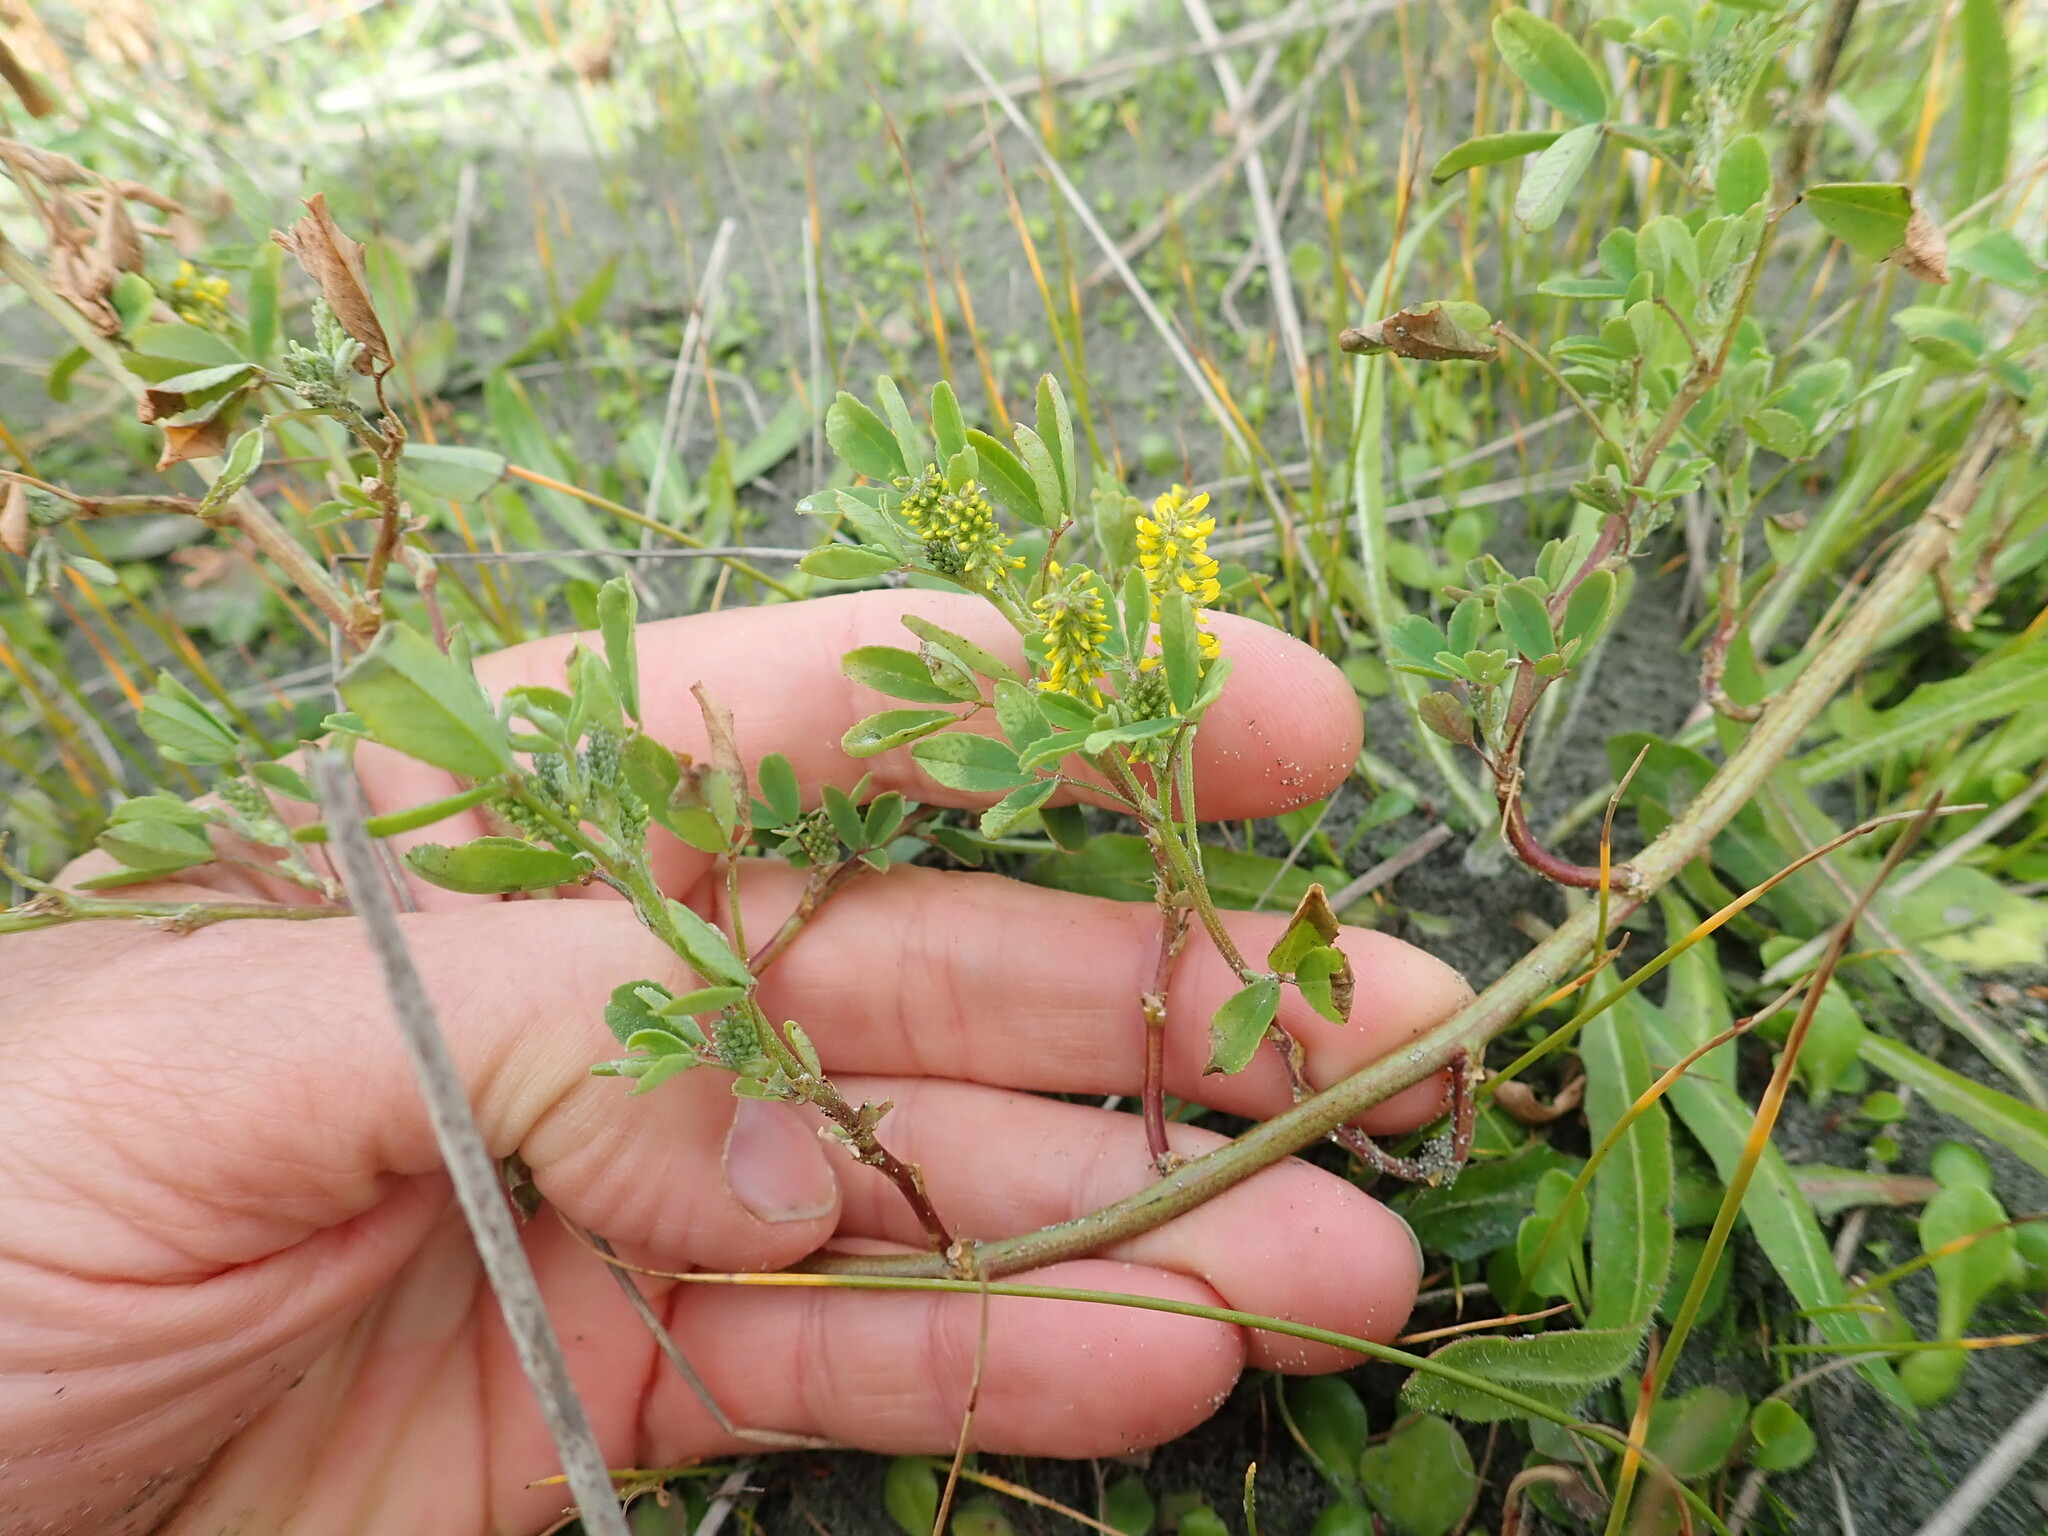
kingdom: Plantae
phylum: Tracheophyta
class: Magnoliopsida
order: Fabales
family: Fabaceae
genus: Melilotus
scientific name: Melilotus indicus
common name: Small melilot
